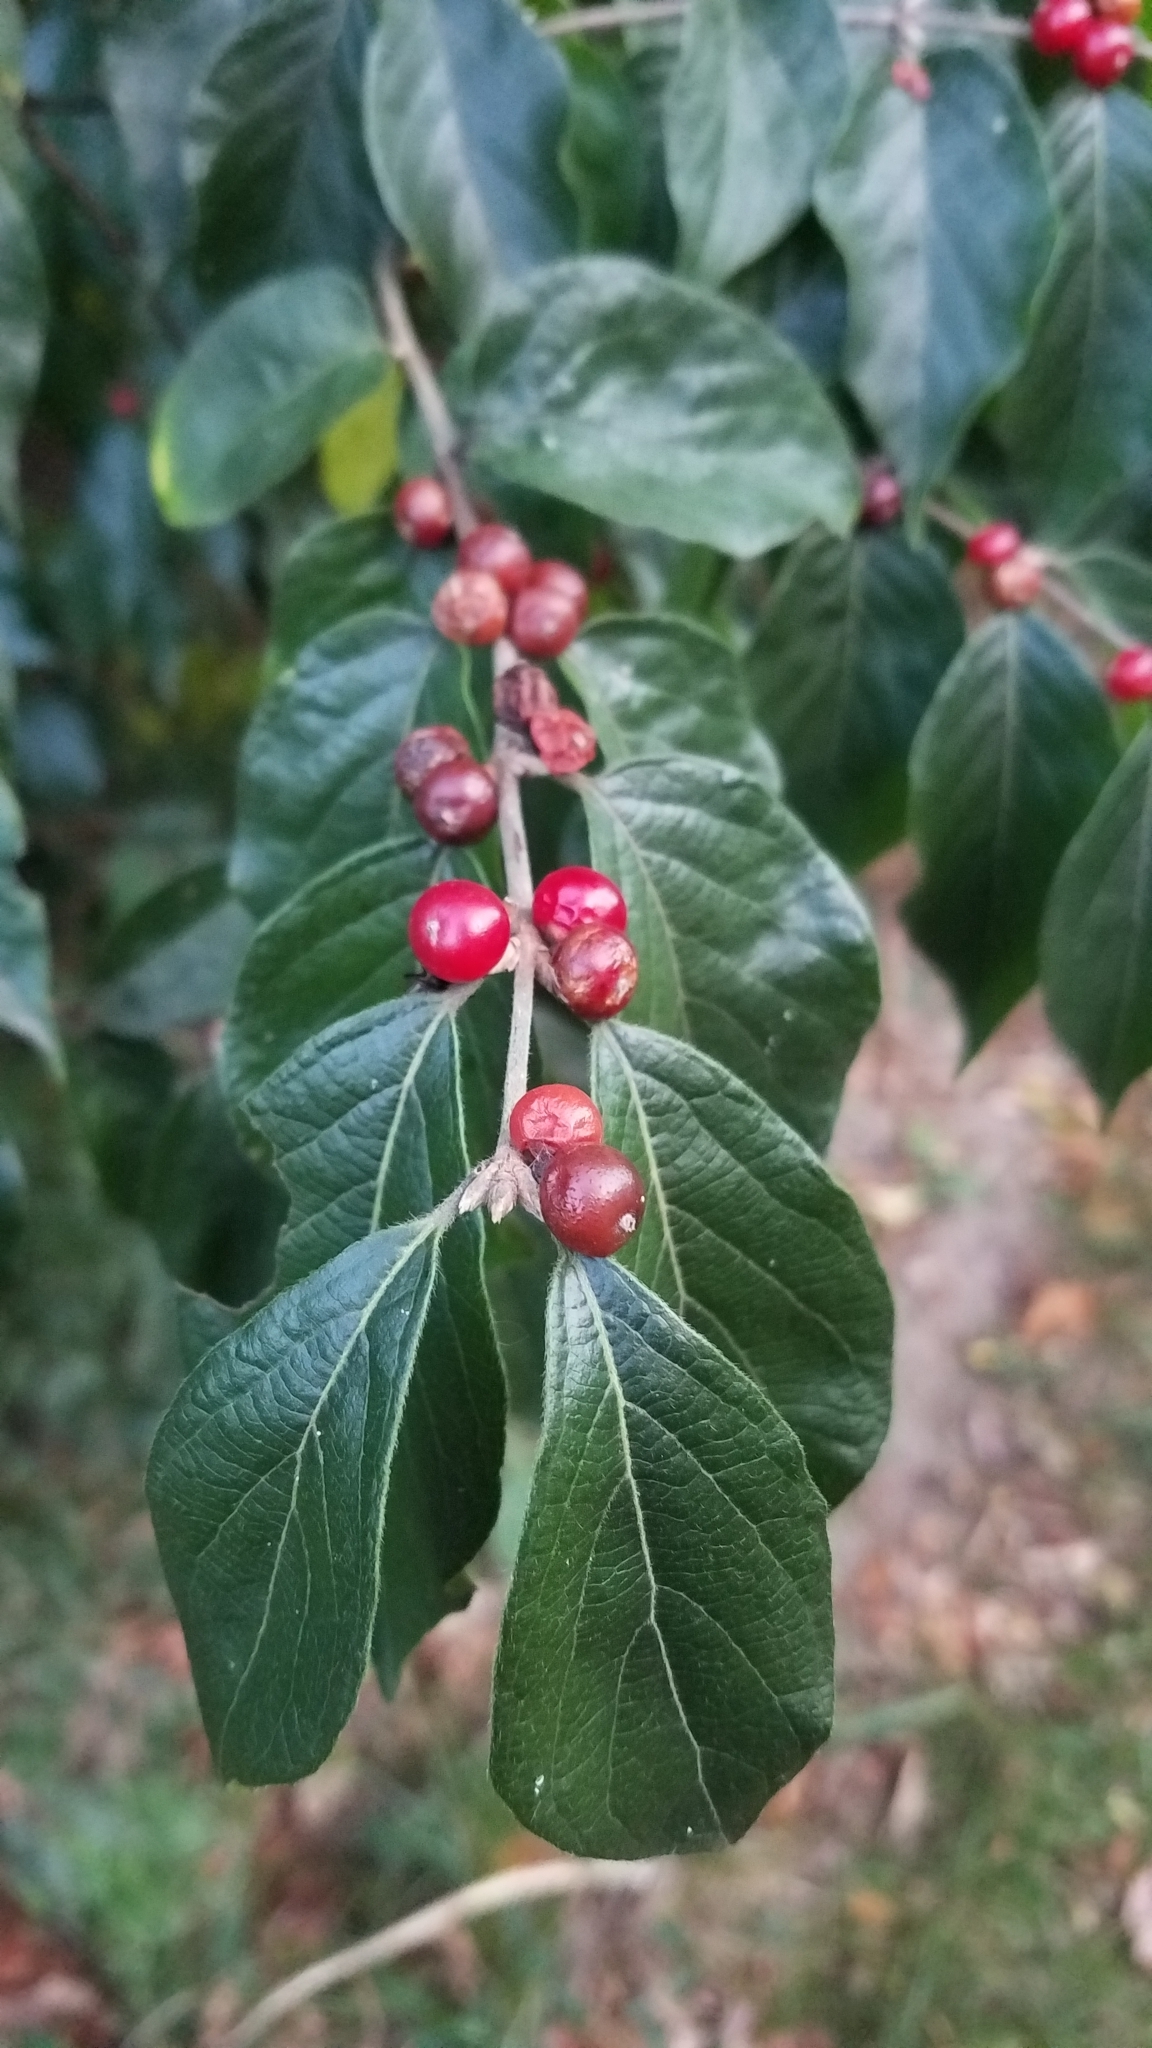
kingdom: Plantae
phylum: Tracheophyta
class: Magnoliopsida
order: Dipsacales
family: Caprifoliaceae
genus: Lonicera
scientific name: Lonicera maackii
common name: Amur honeysuckle
